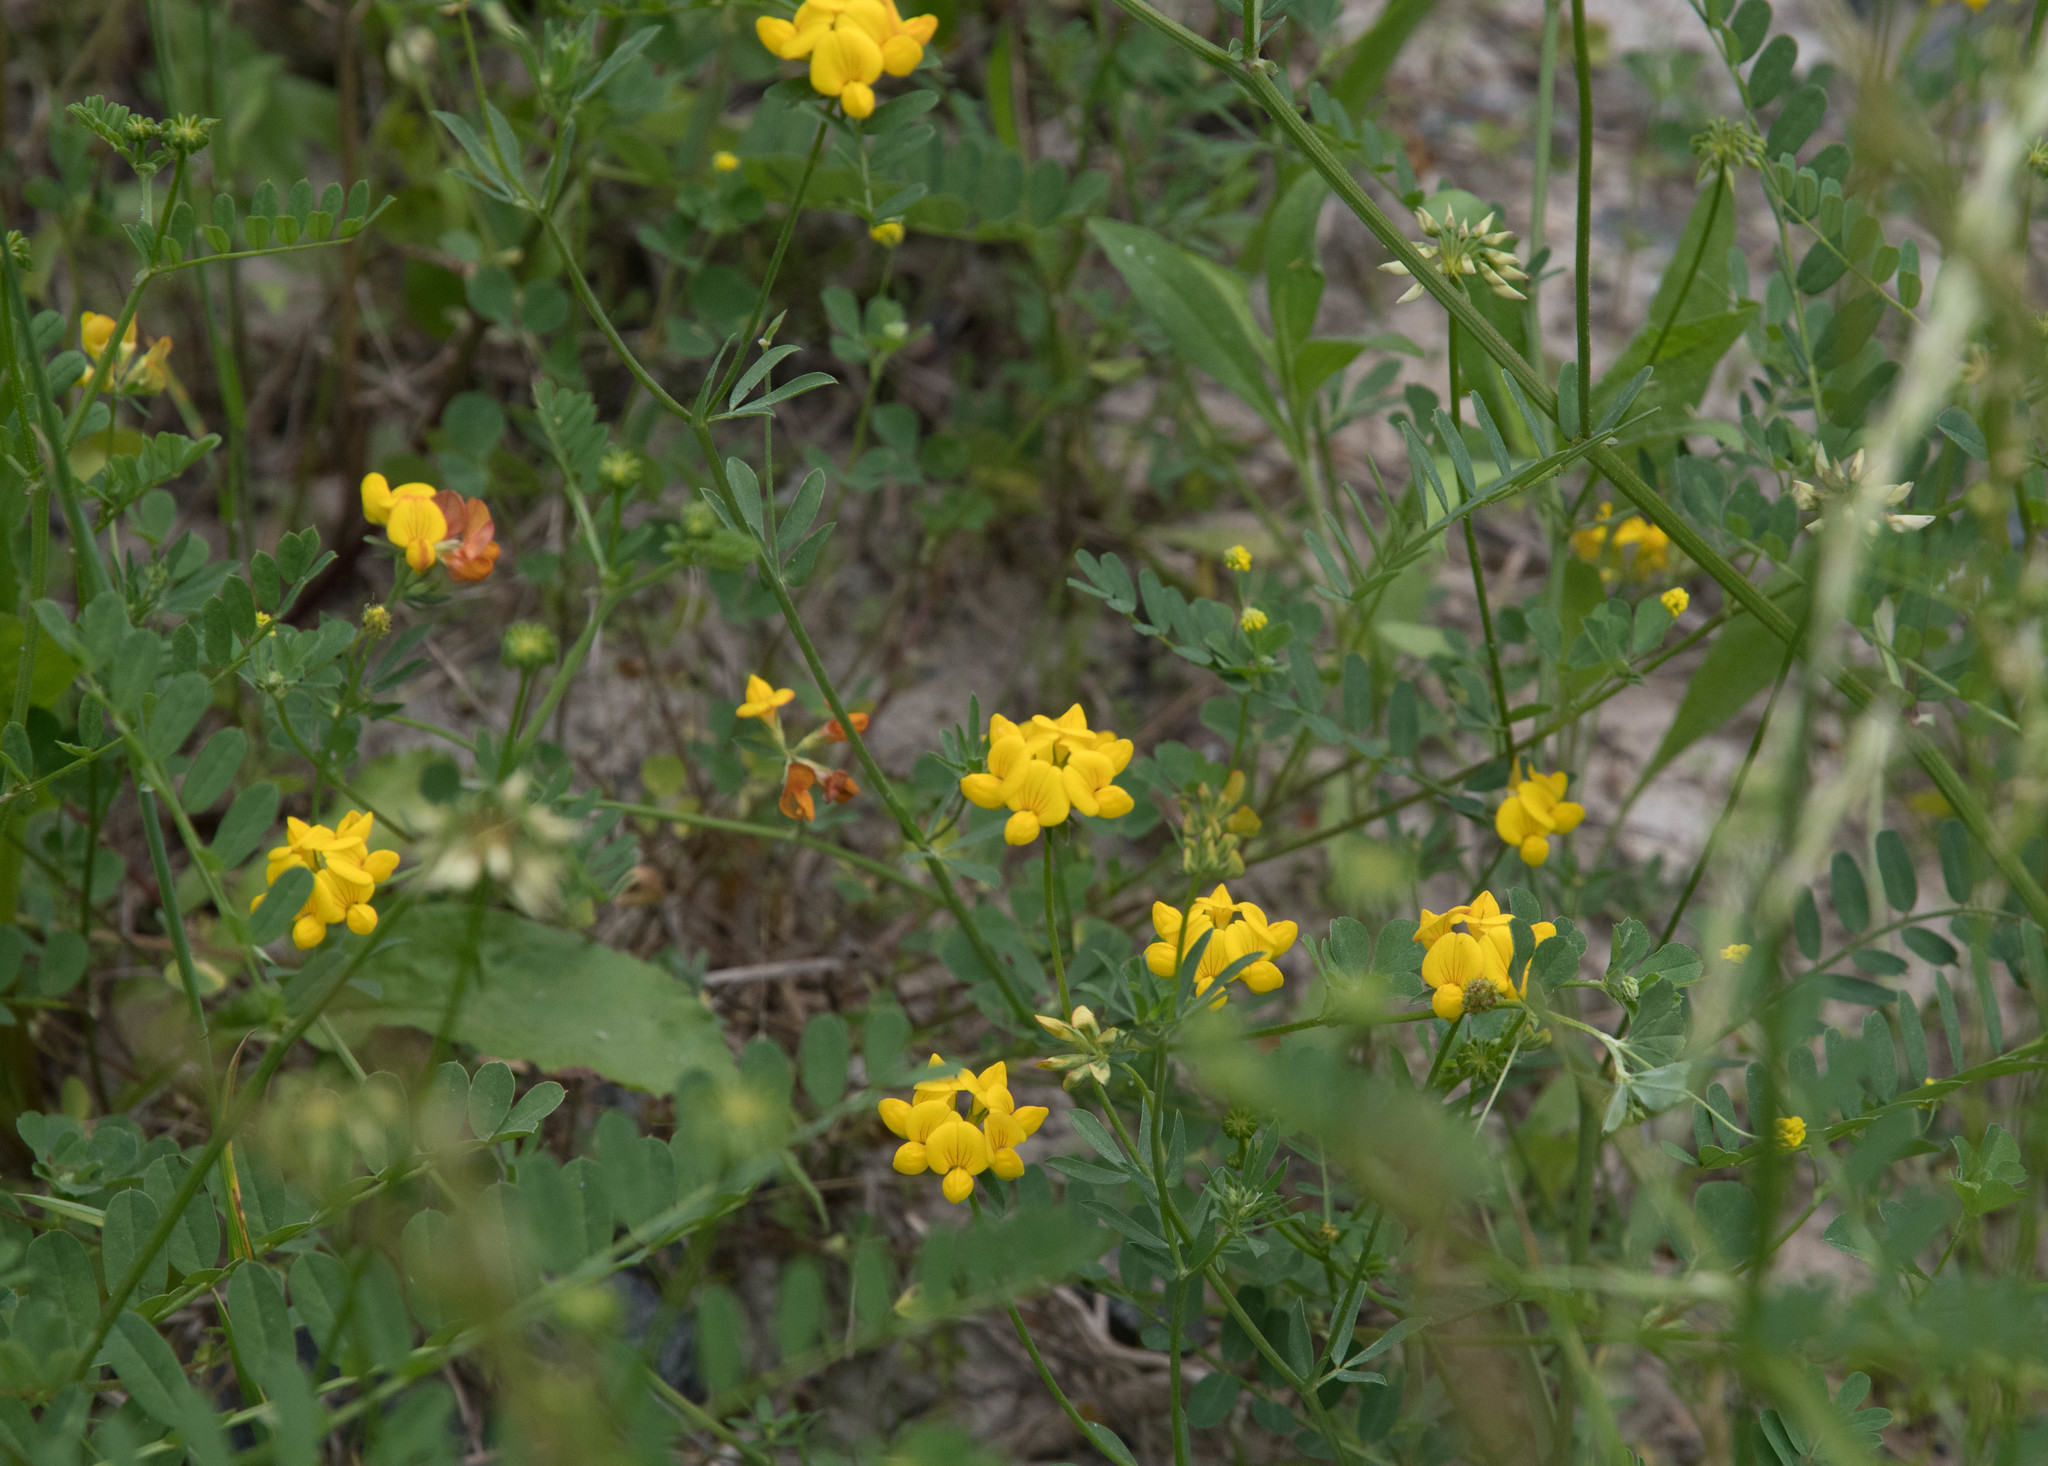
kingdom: Plantae
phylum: Tracheophyta
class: Magnoliopsida
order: Fabales
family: Fabaceae
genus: Lotus
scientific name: Lotus corniculatus
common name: Common bird's-foot-trefoil
